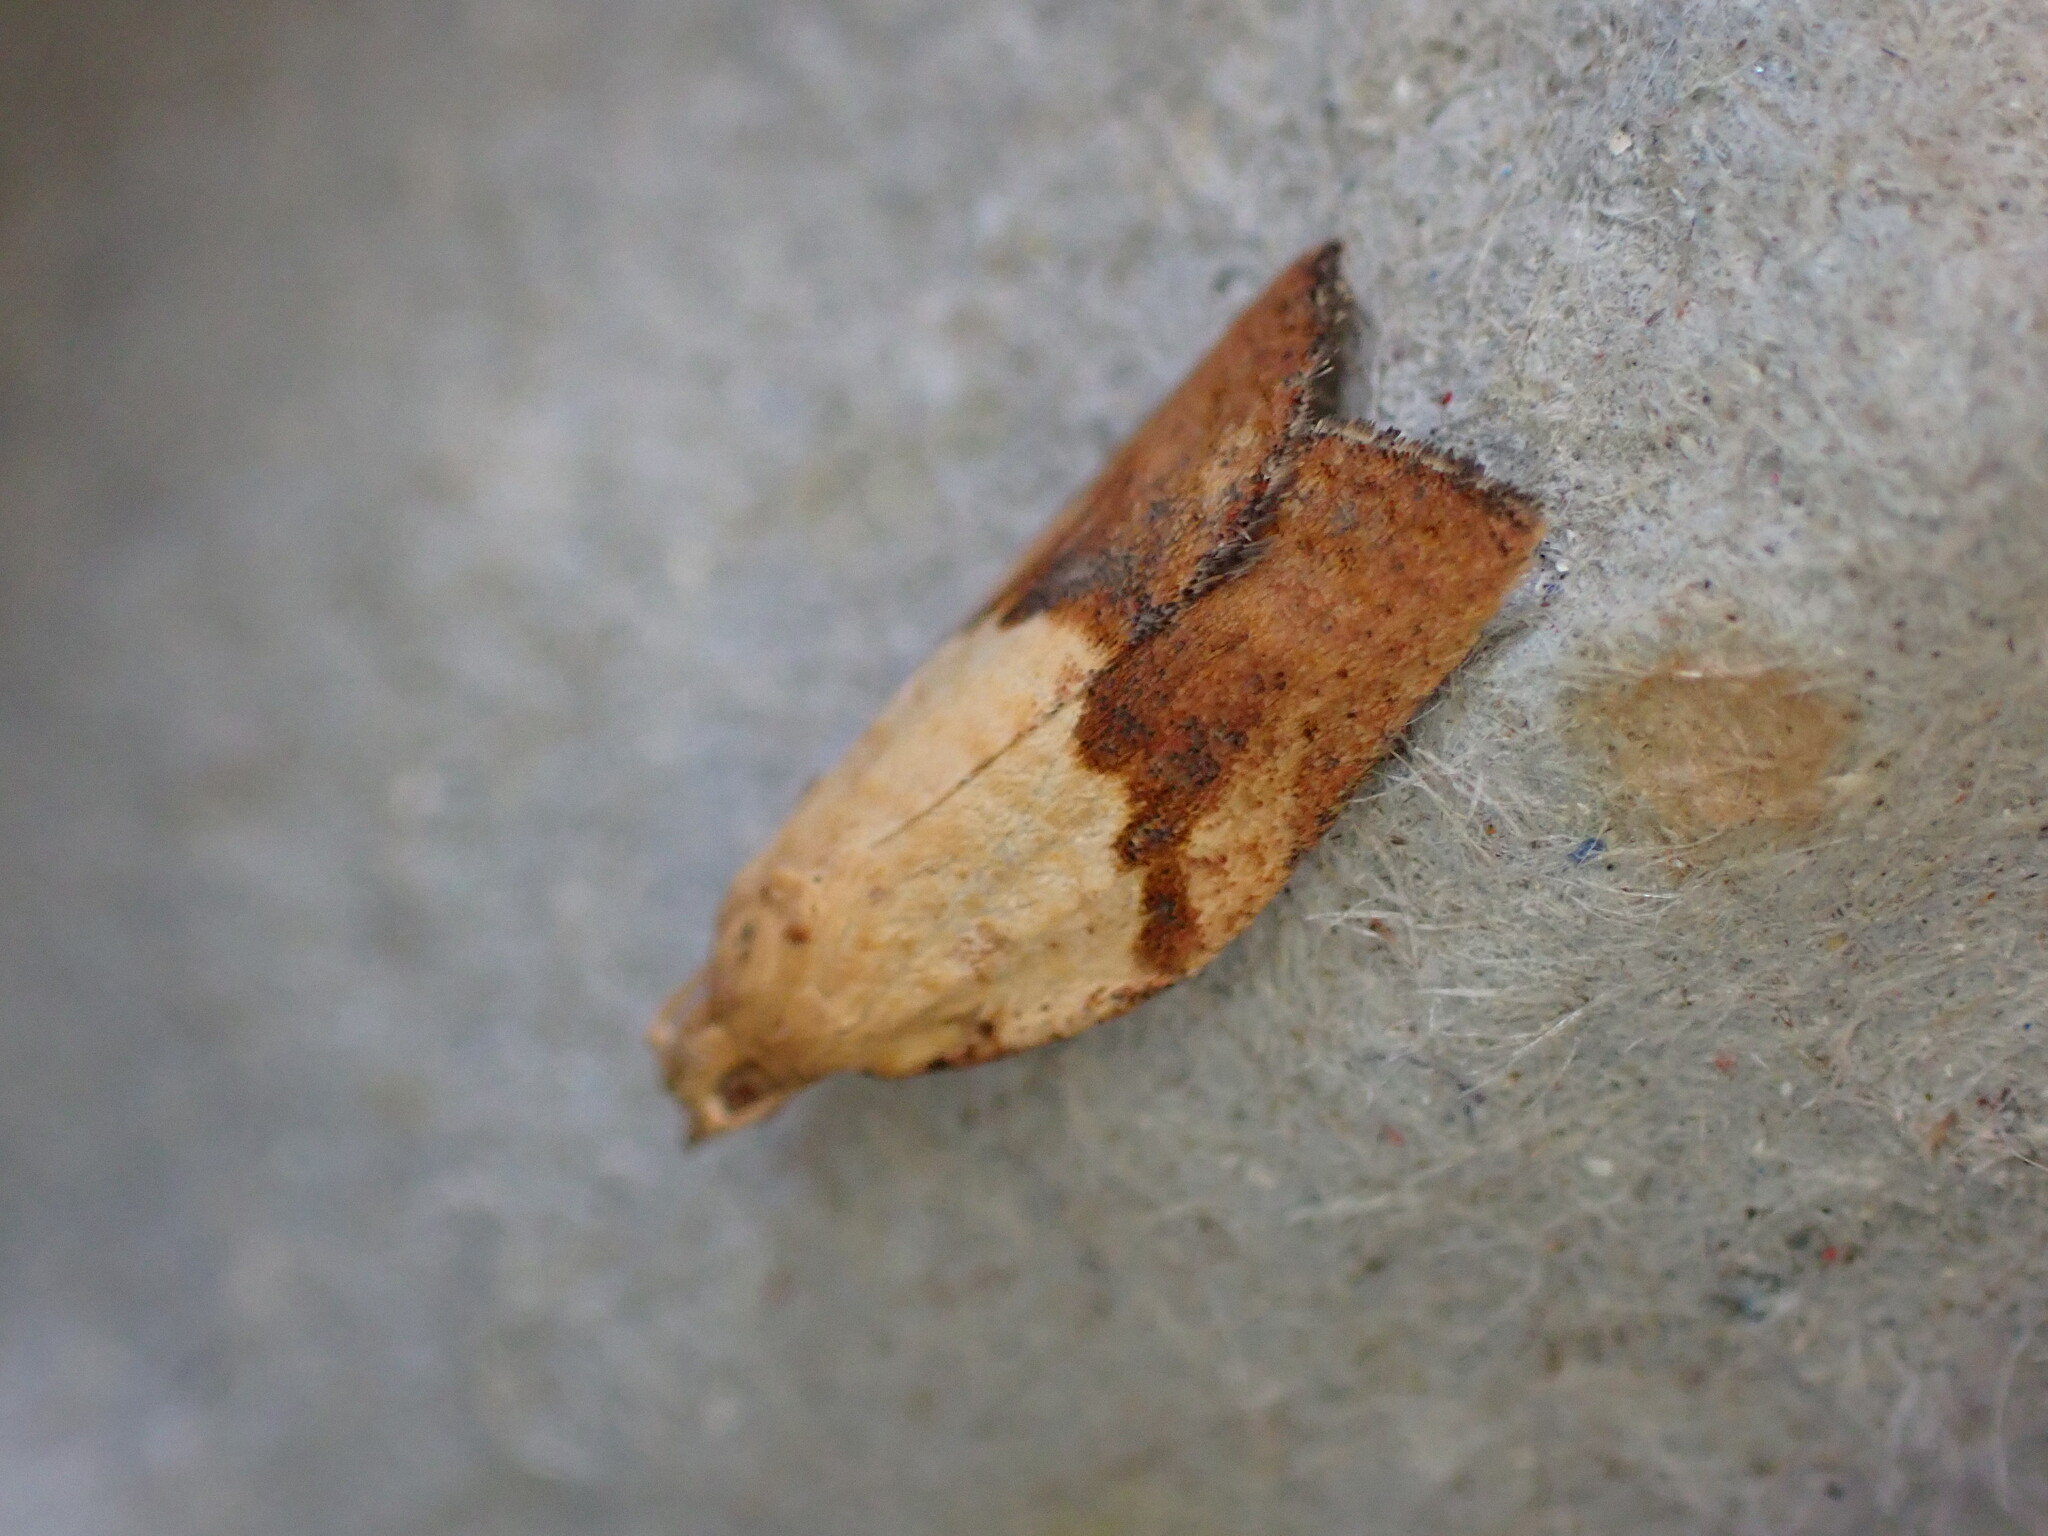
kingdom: Animalia
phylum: Arthropoda
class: Insecta
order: Lepidoptera
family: Tortricidae
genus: Epiphyas
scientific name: Epiphyas postvittana
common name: Light brown apple moth
